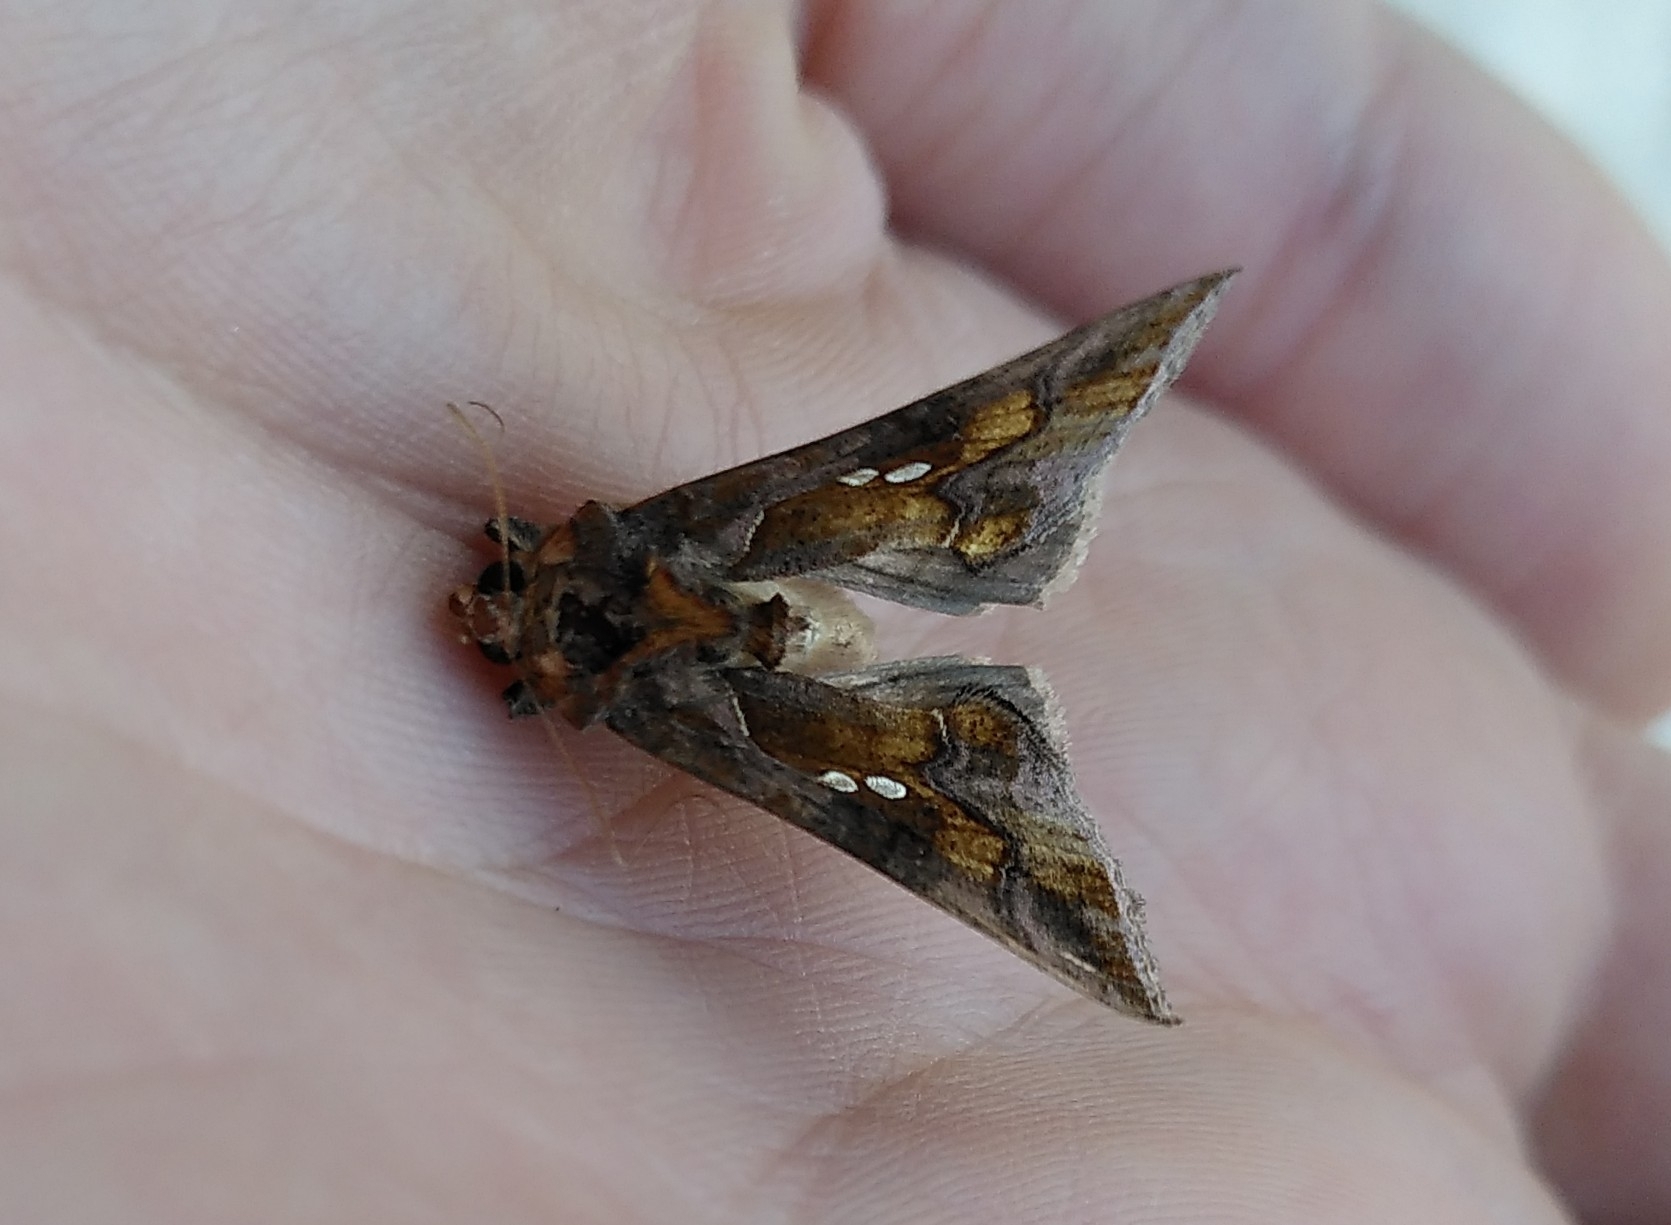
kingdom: Animalia
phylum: Arthropoda
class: Insecta
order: Lepidoptera
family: Noctuidae
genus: Chrysodeixis
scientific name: Chrysodeixis chalcites
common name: Golden twin-spot
